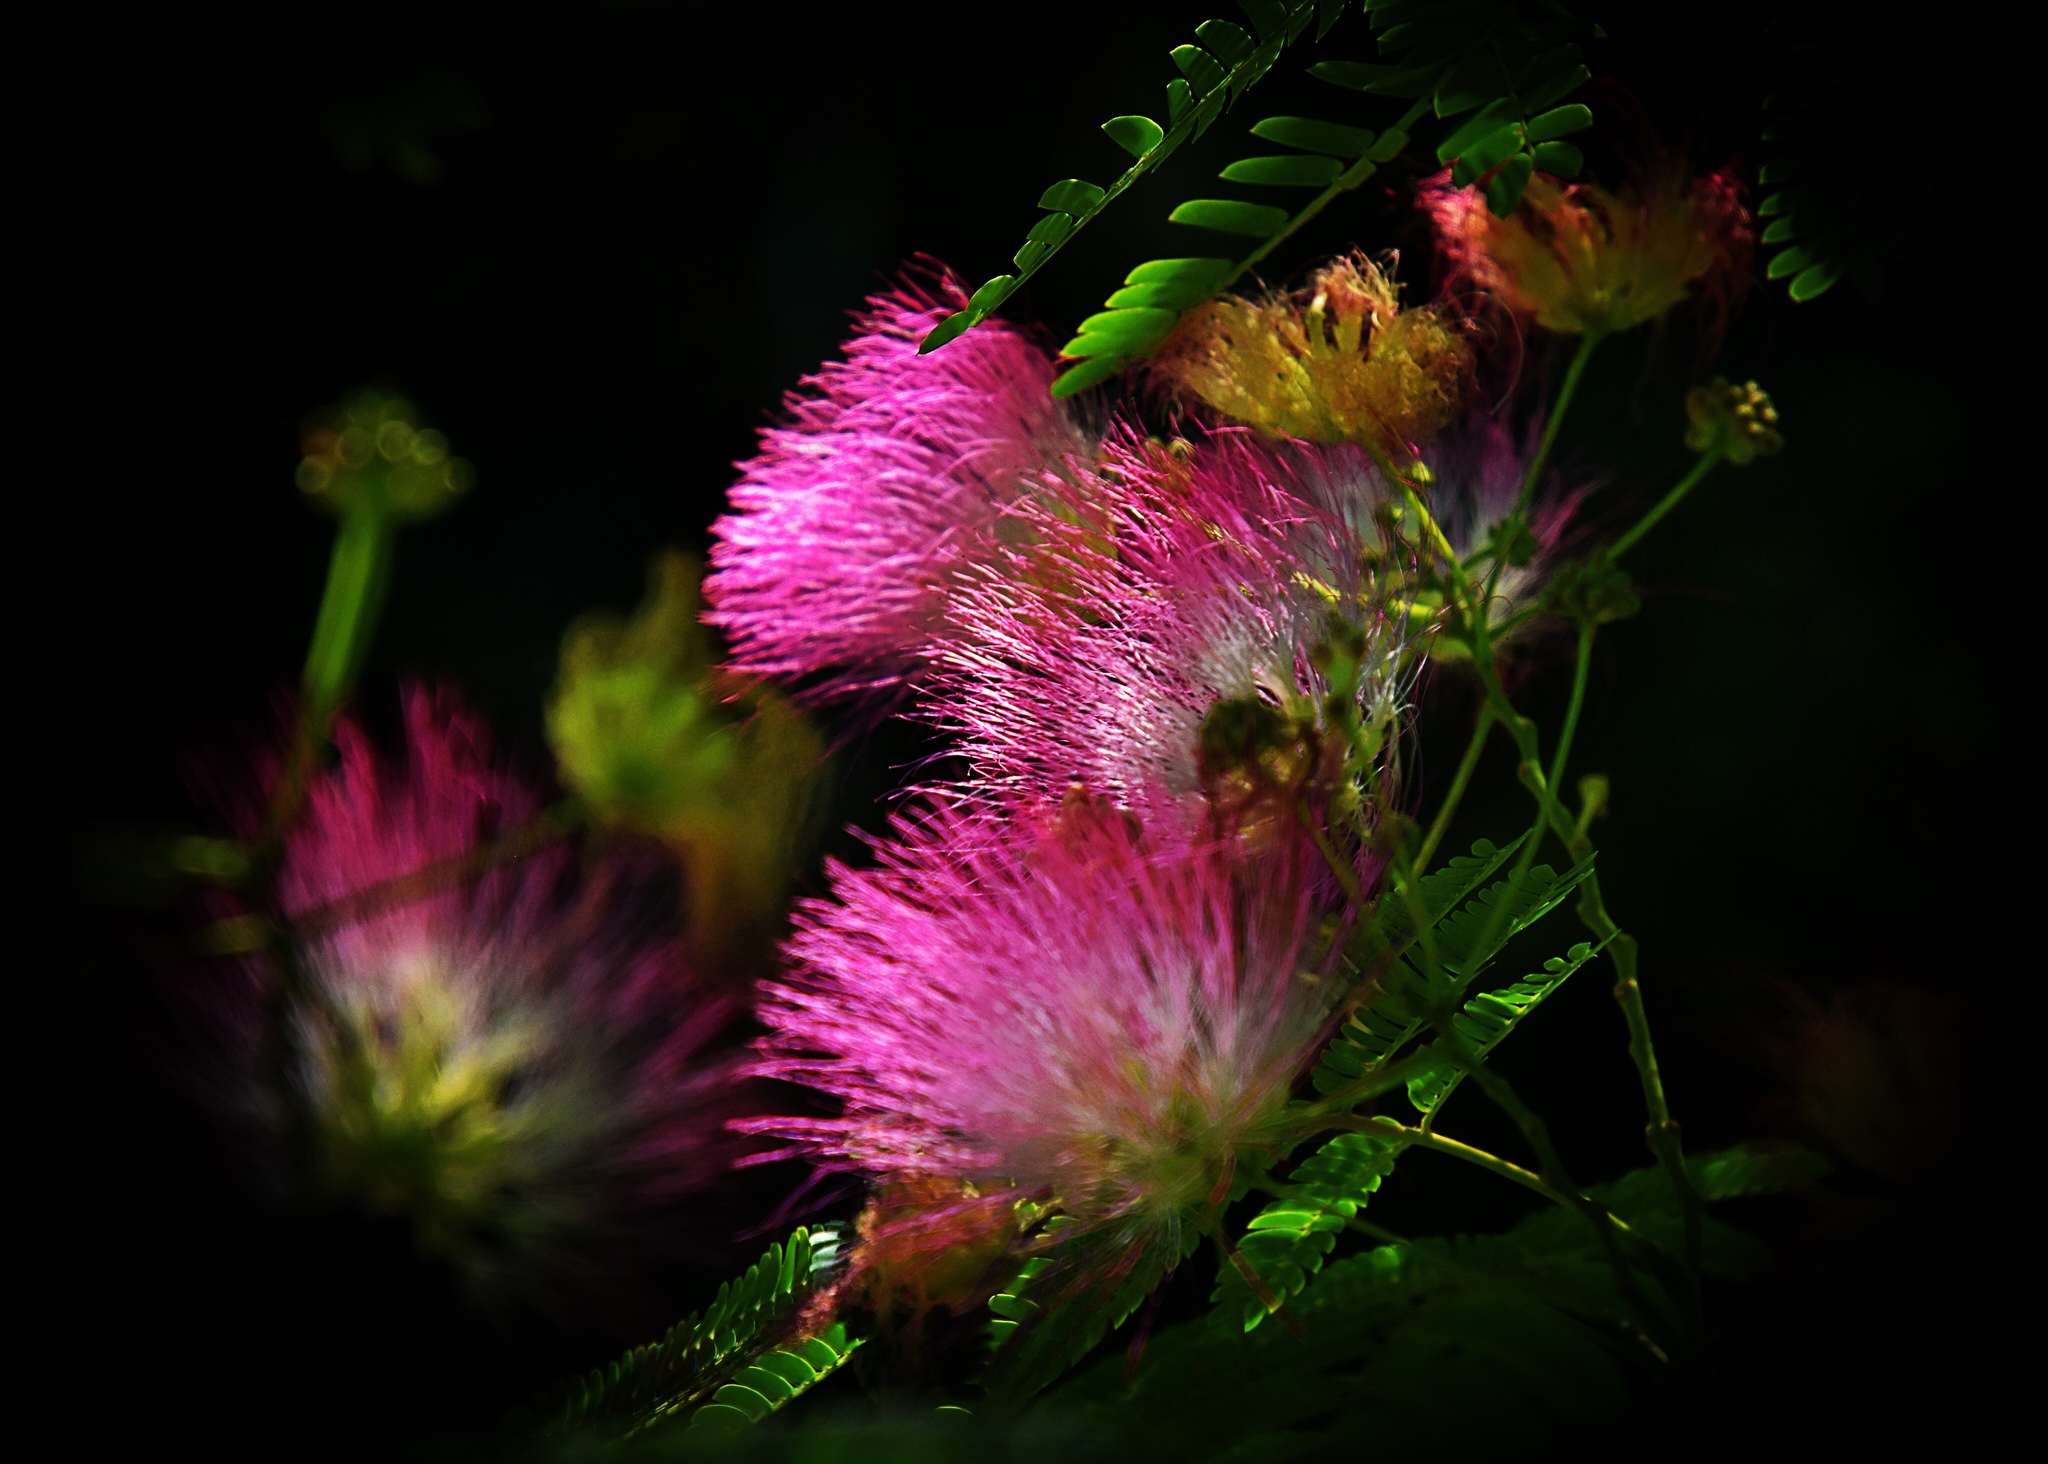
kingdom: Plantae
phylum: Tracheophyta
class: Magnoliopsida
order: Fabales
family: Fabaceae
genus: Albizia
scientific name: Albizia julibrissin
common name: Silktree
